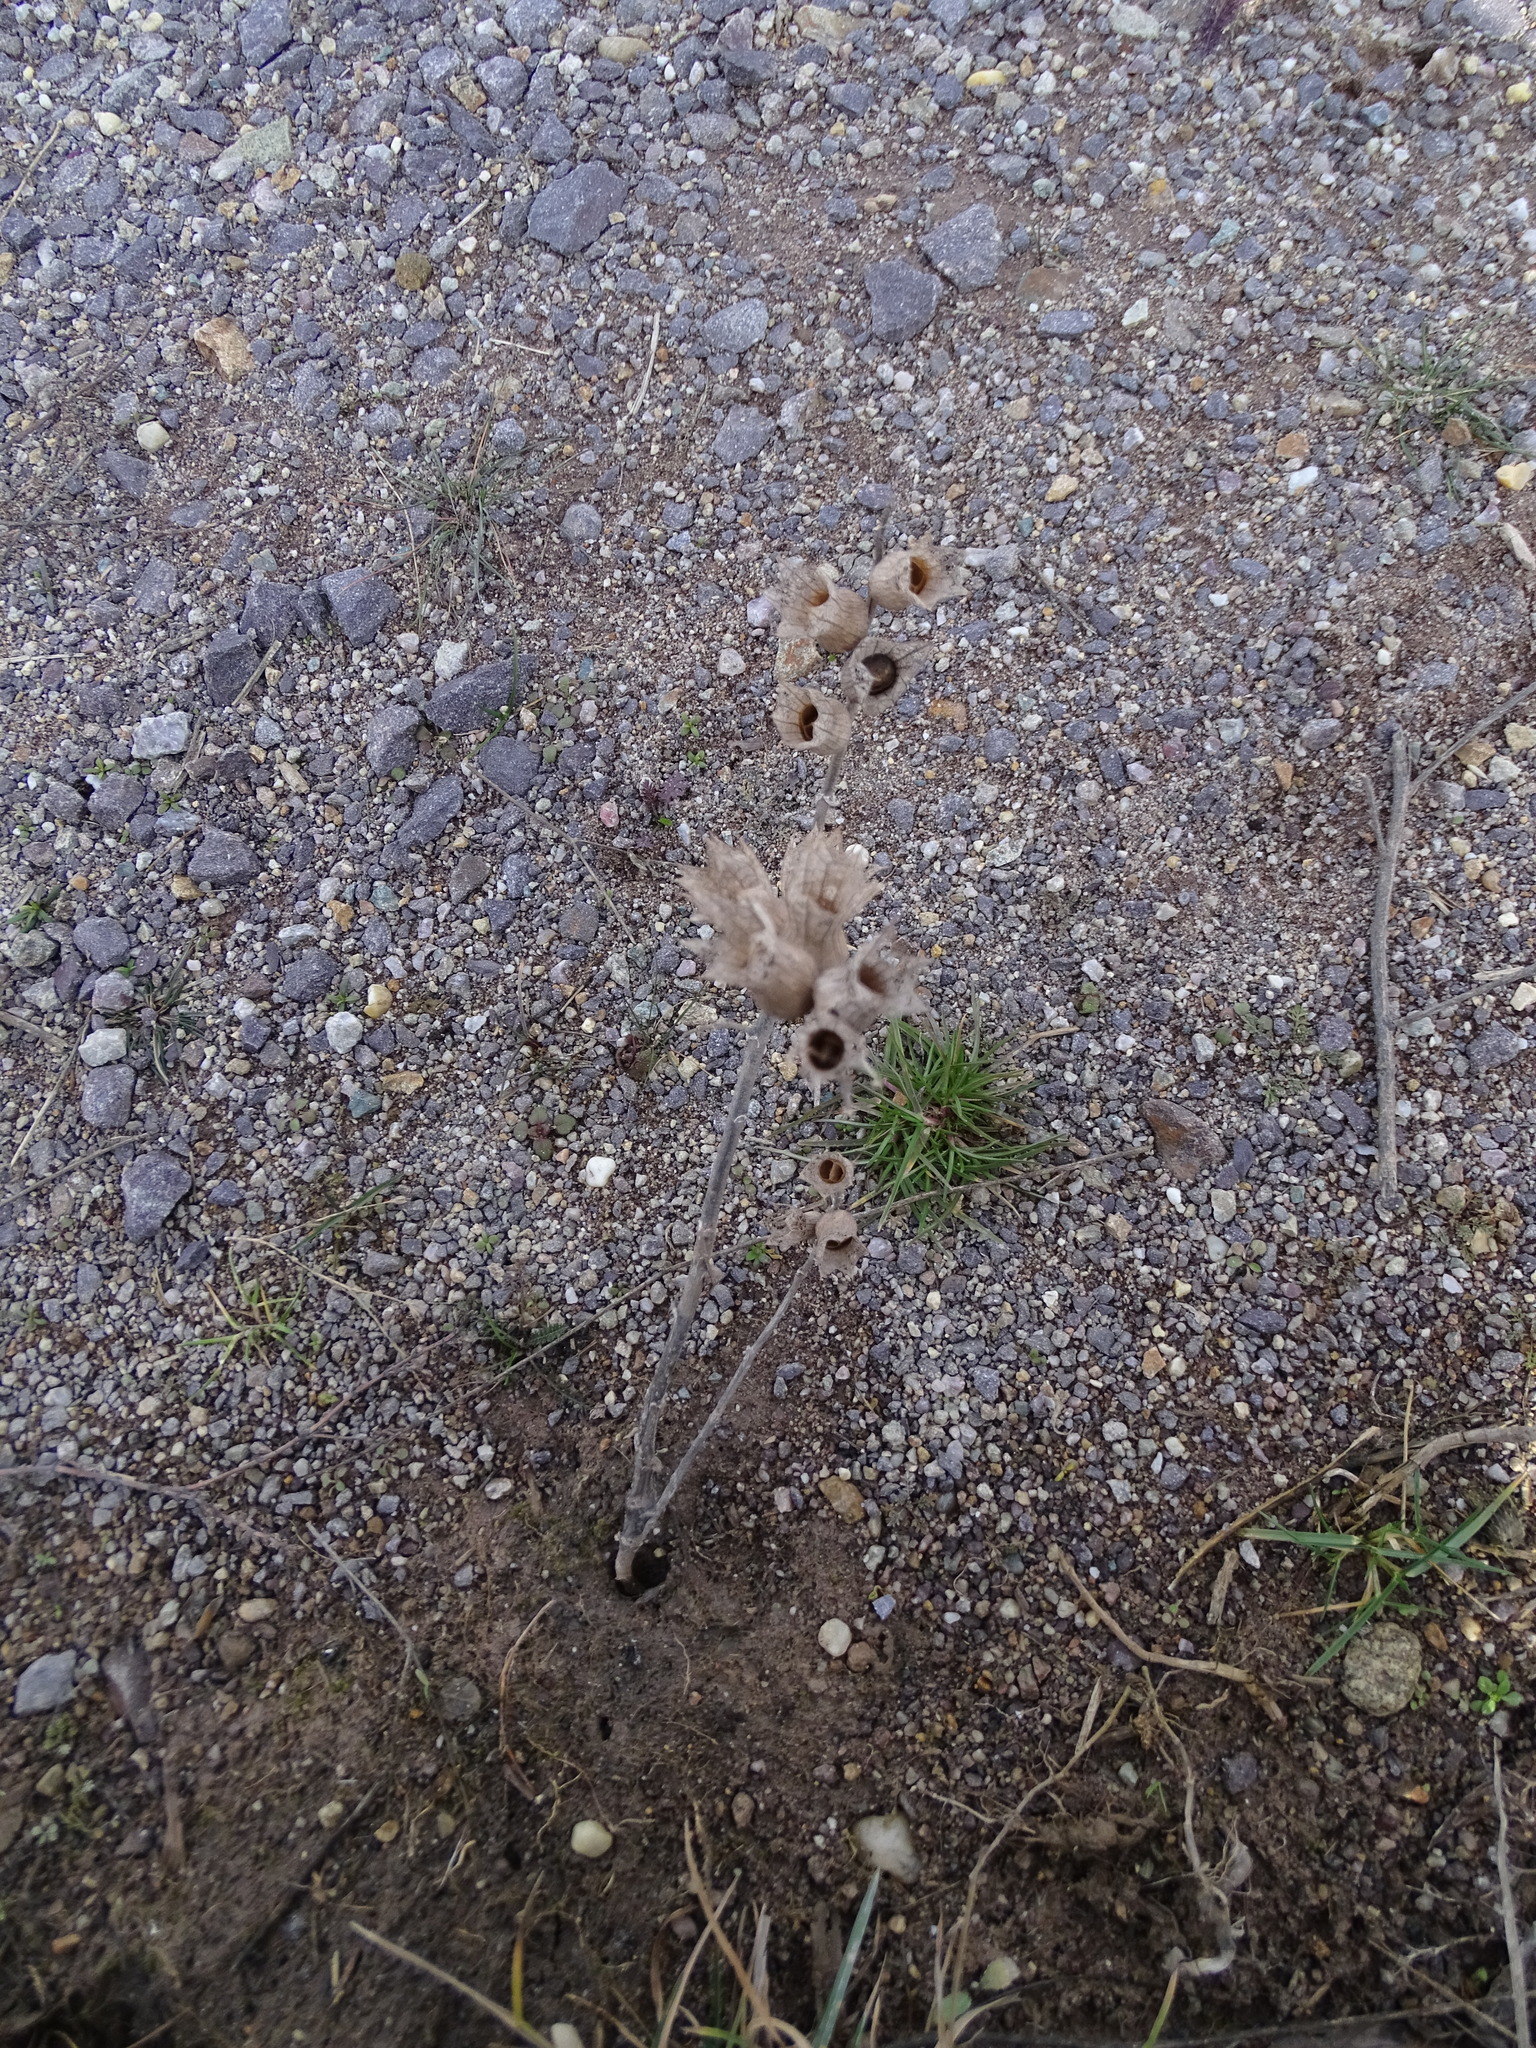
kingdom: Plantae
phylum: Tracheophyta
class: Magnoliopsida
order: Solanales
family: Solanaceae
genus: Hyoscyamus
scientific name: Hyoscyamus niger
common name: Henbane
